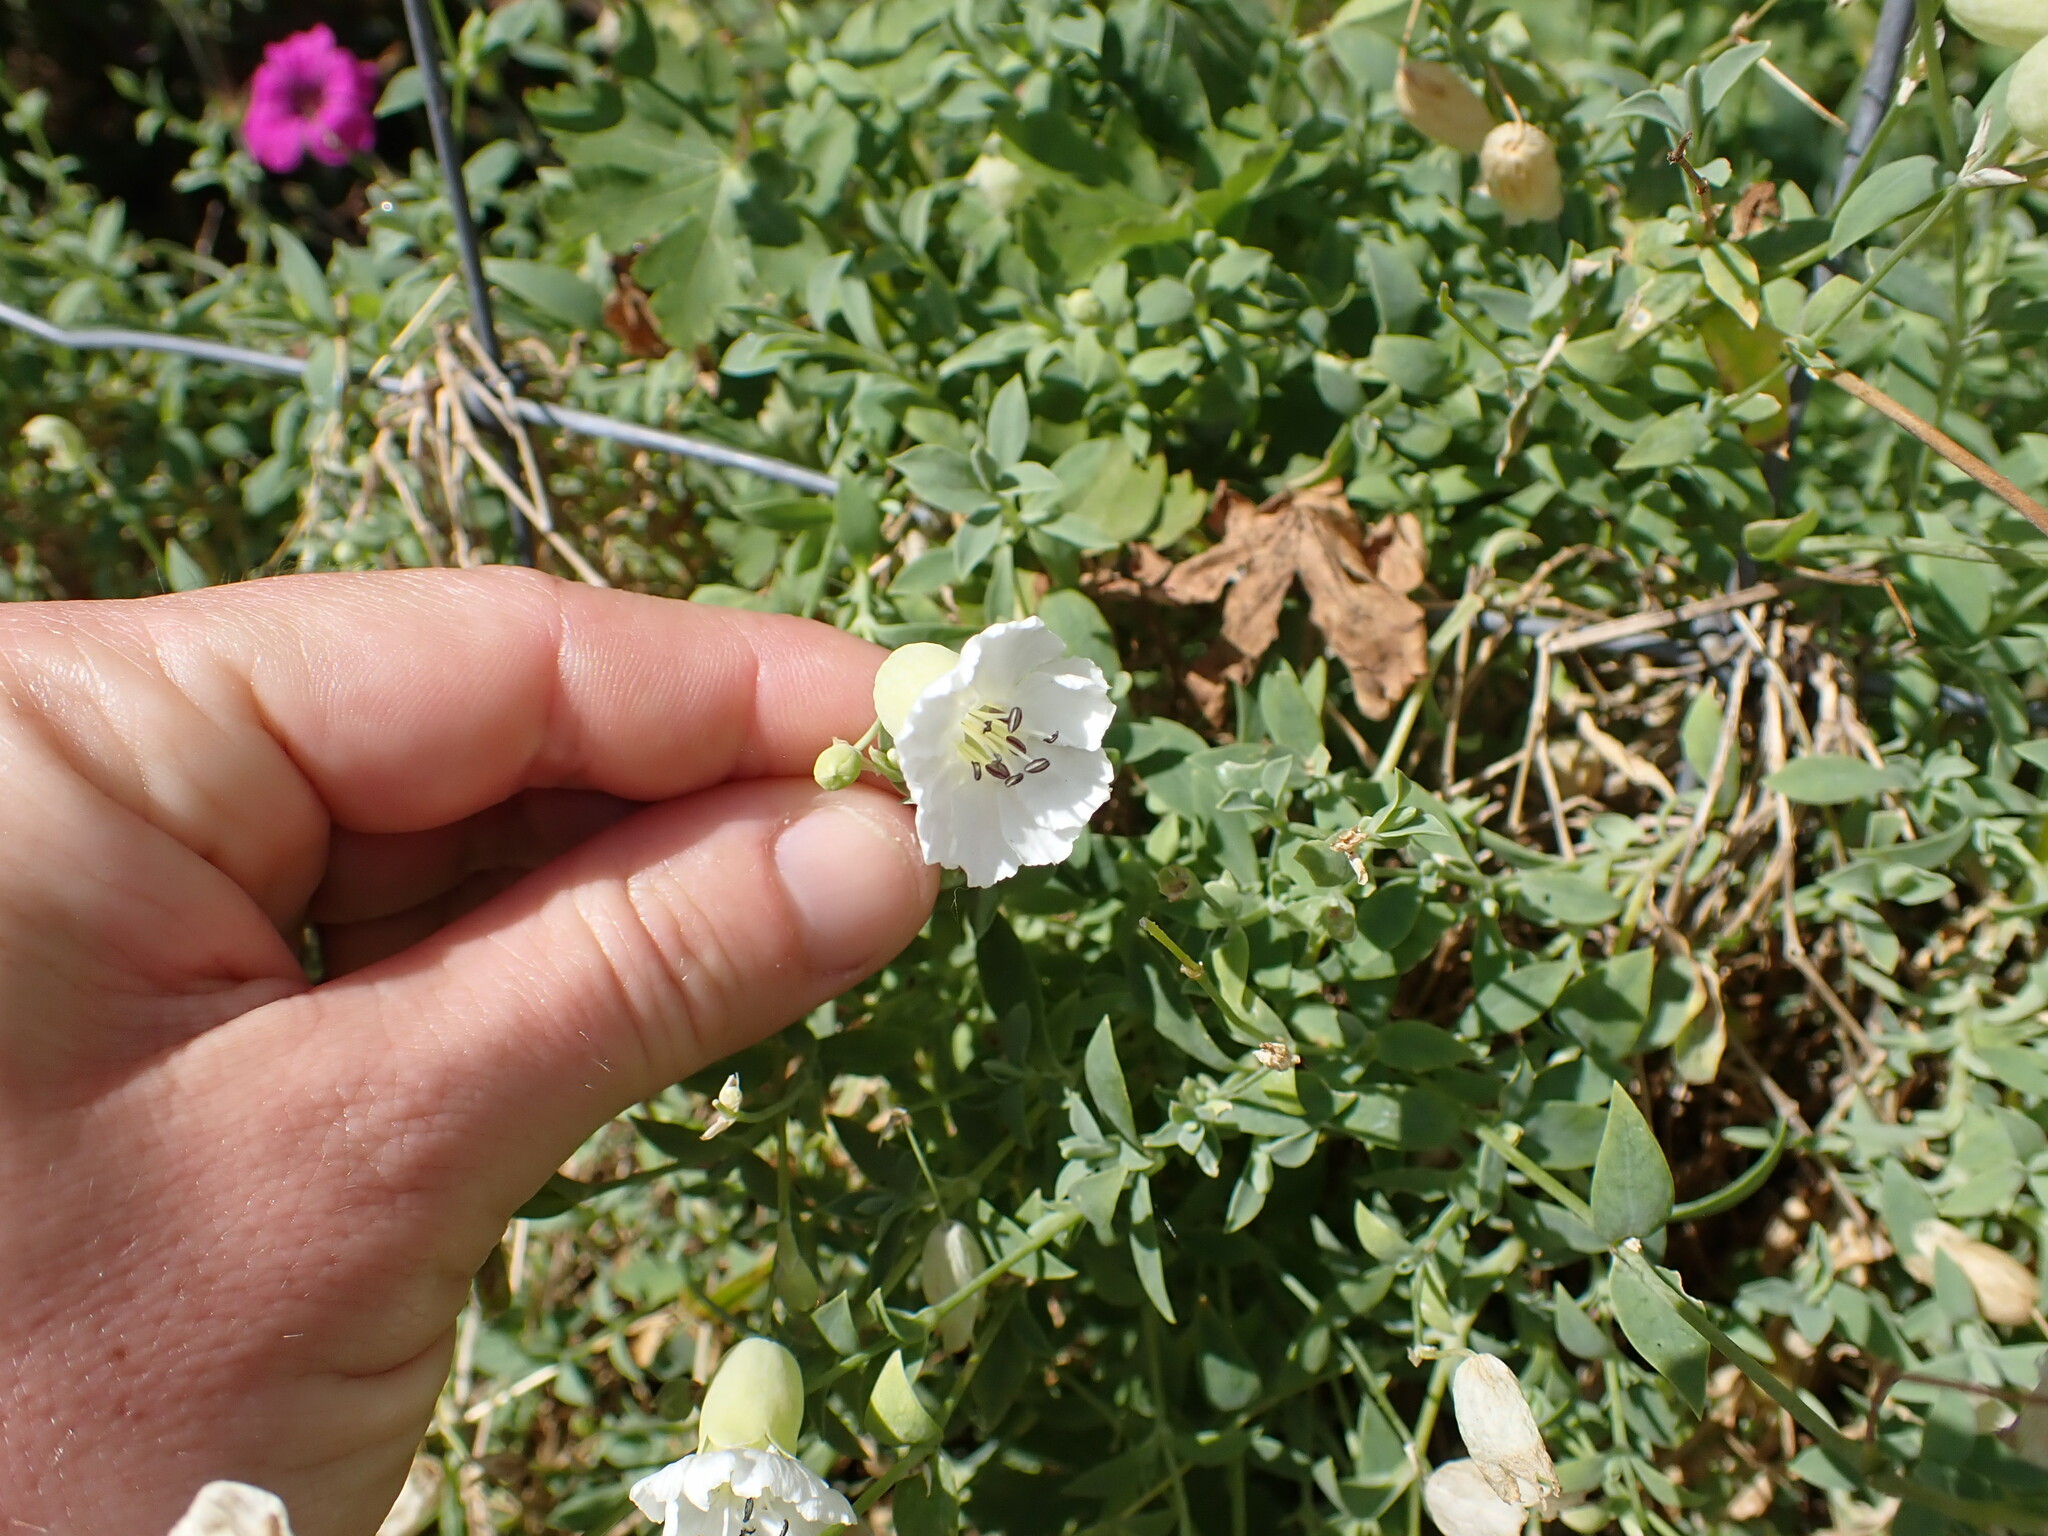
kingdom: Plantae
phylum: Tracheophyta
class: Magnoliopsida
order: Caryophyllales
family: Caryophyllaceae
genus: Silene
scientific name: Silene uniflora
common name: Sea campion
